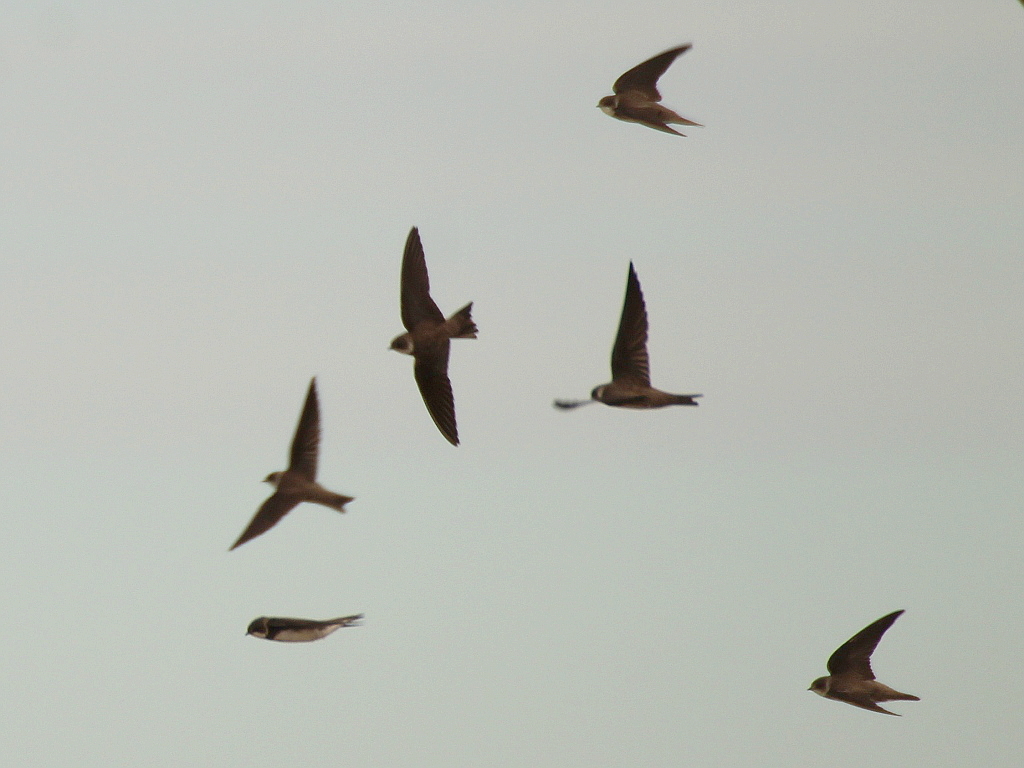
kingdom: Animalia
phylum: Chordata
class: Aves
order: Passeriformes
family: Hirundinidae
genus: Riparia
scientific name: Riparia riparia
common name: Sand martin
